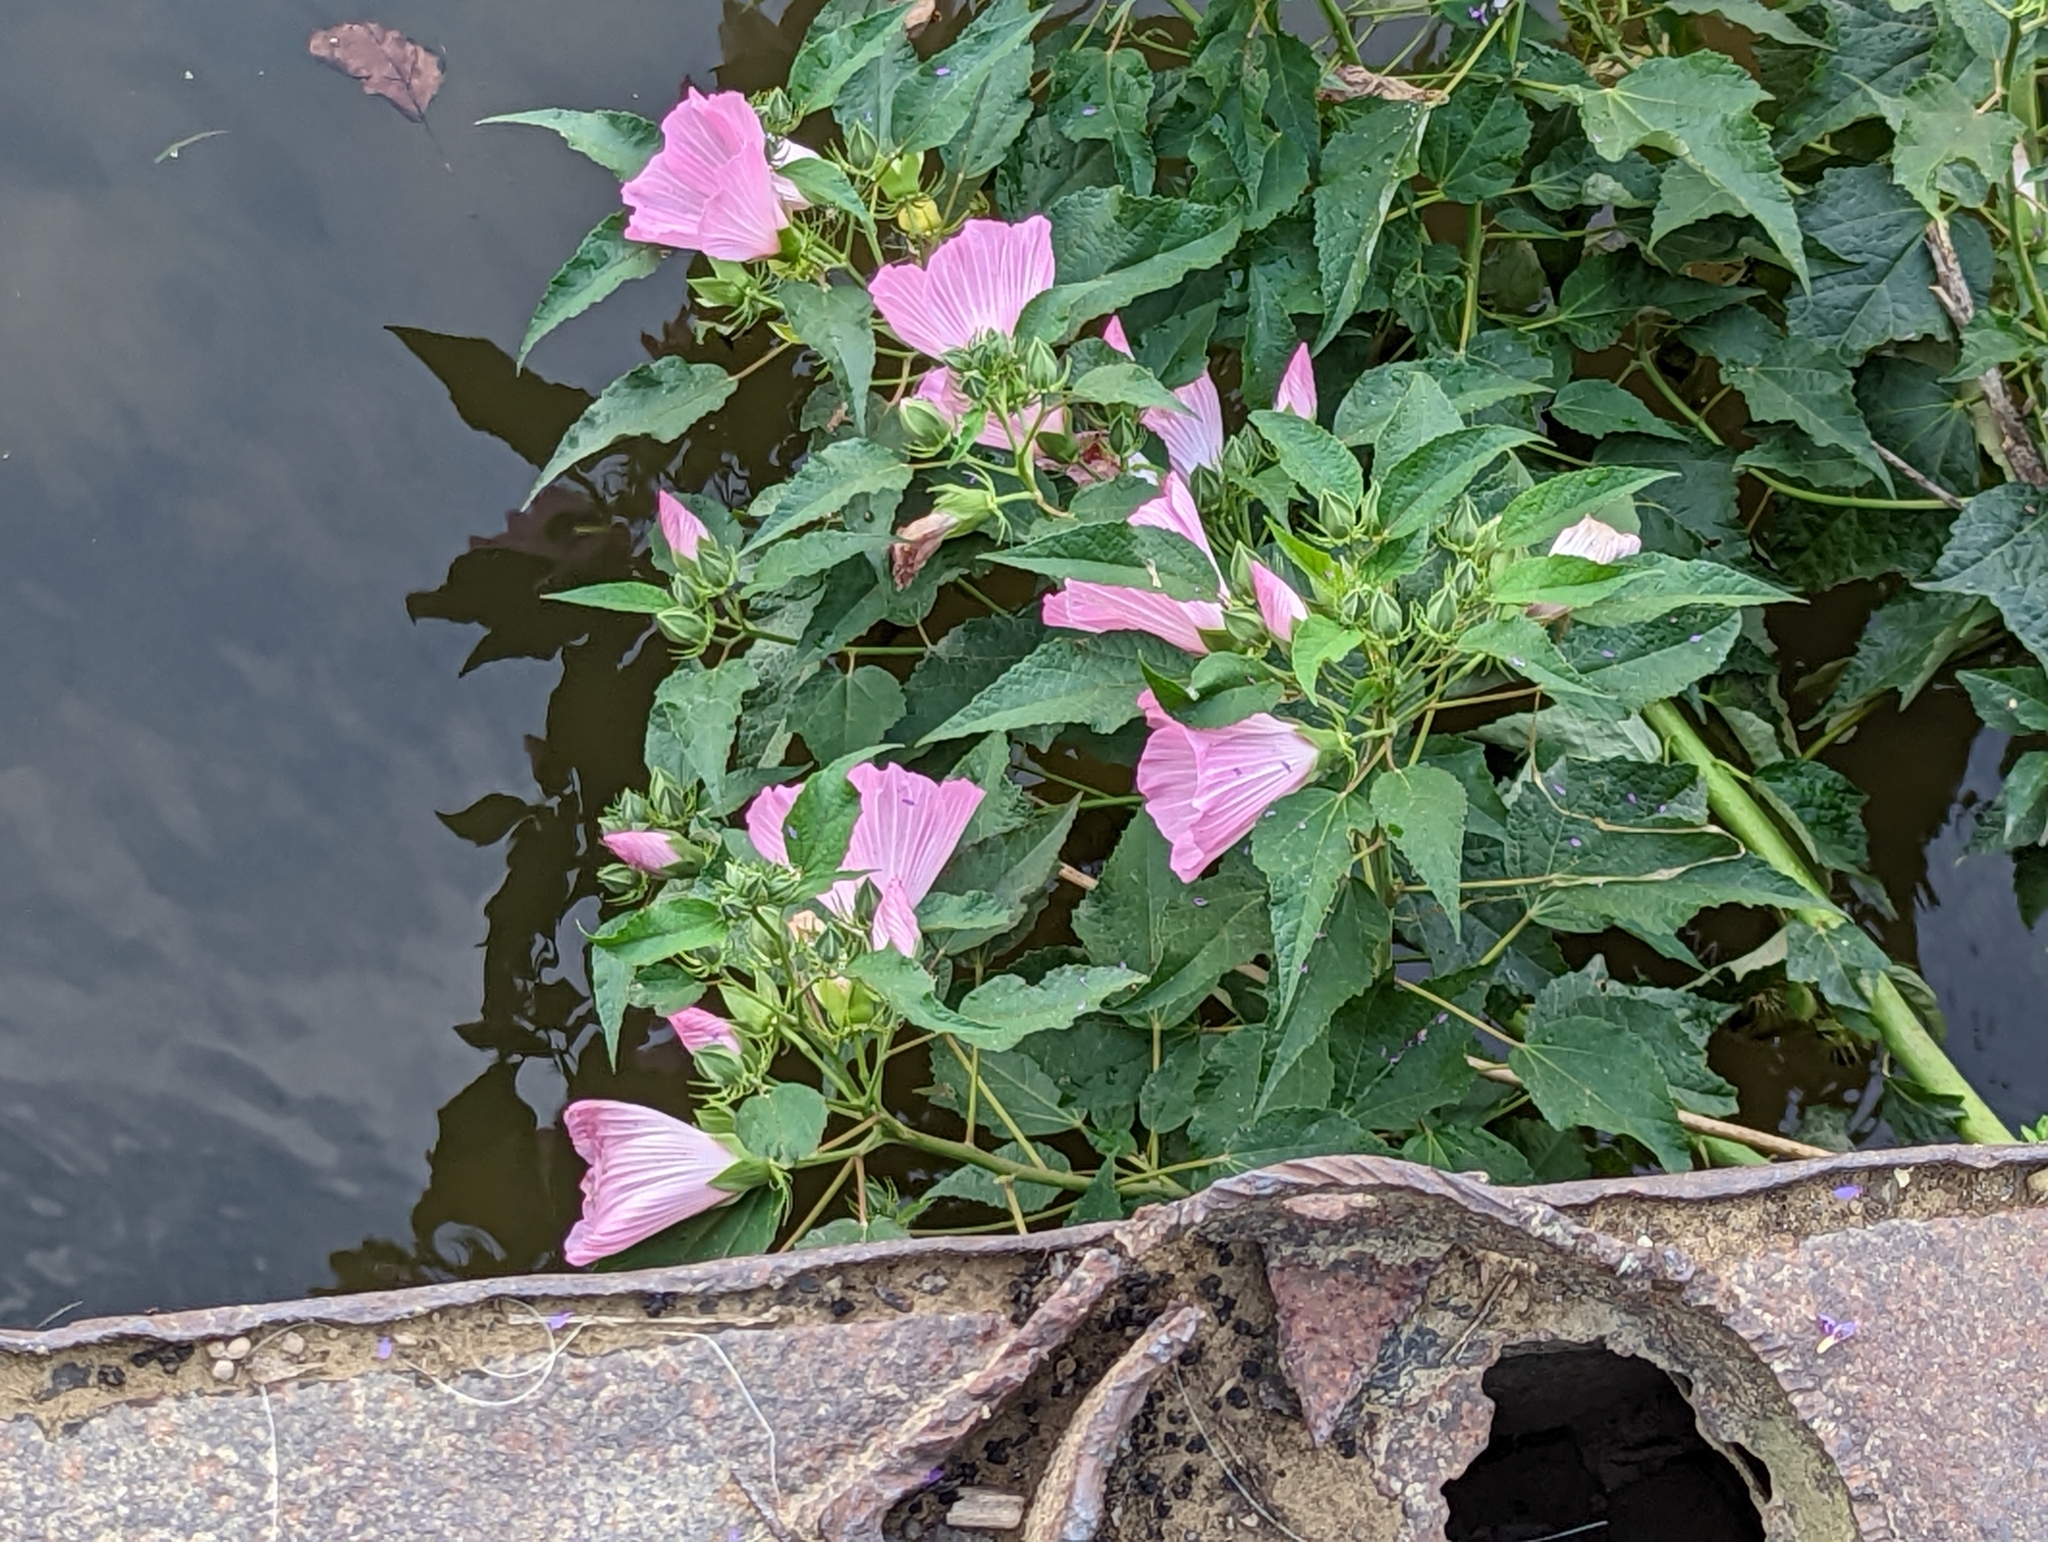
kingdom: Plantae
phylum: Tracheophyta
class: Magnoliopsida
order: Malvales
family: Malvaceae
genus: Hibiscus
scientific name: Hibiscus moscheutos
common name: Common rose-mallow
